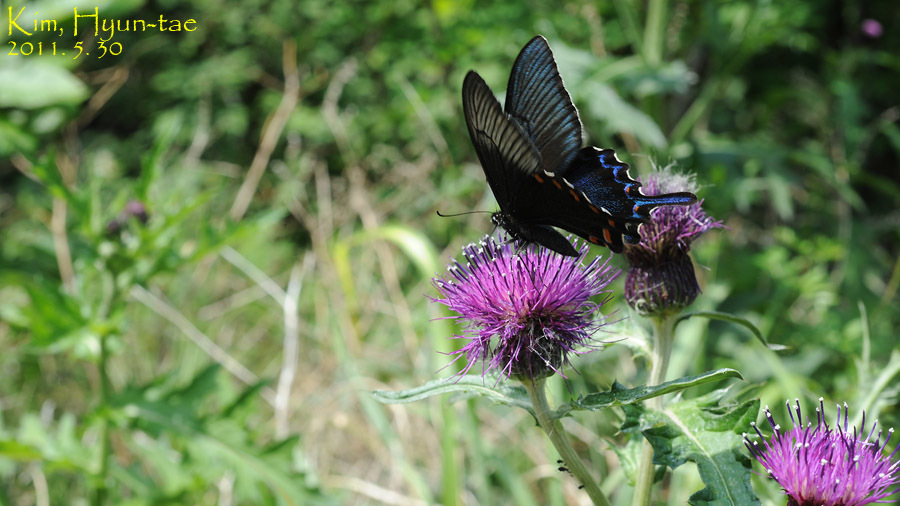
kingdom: Animalia
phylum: Arthropoda
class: Insecta
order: Lepidoptera
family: Papilionidae
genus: Papilio
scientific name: Papilio dehaanii
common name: Japanese peacock swallowtail
